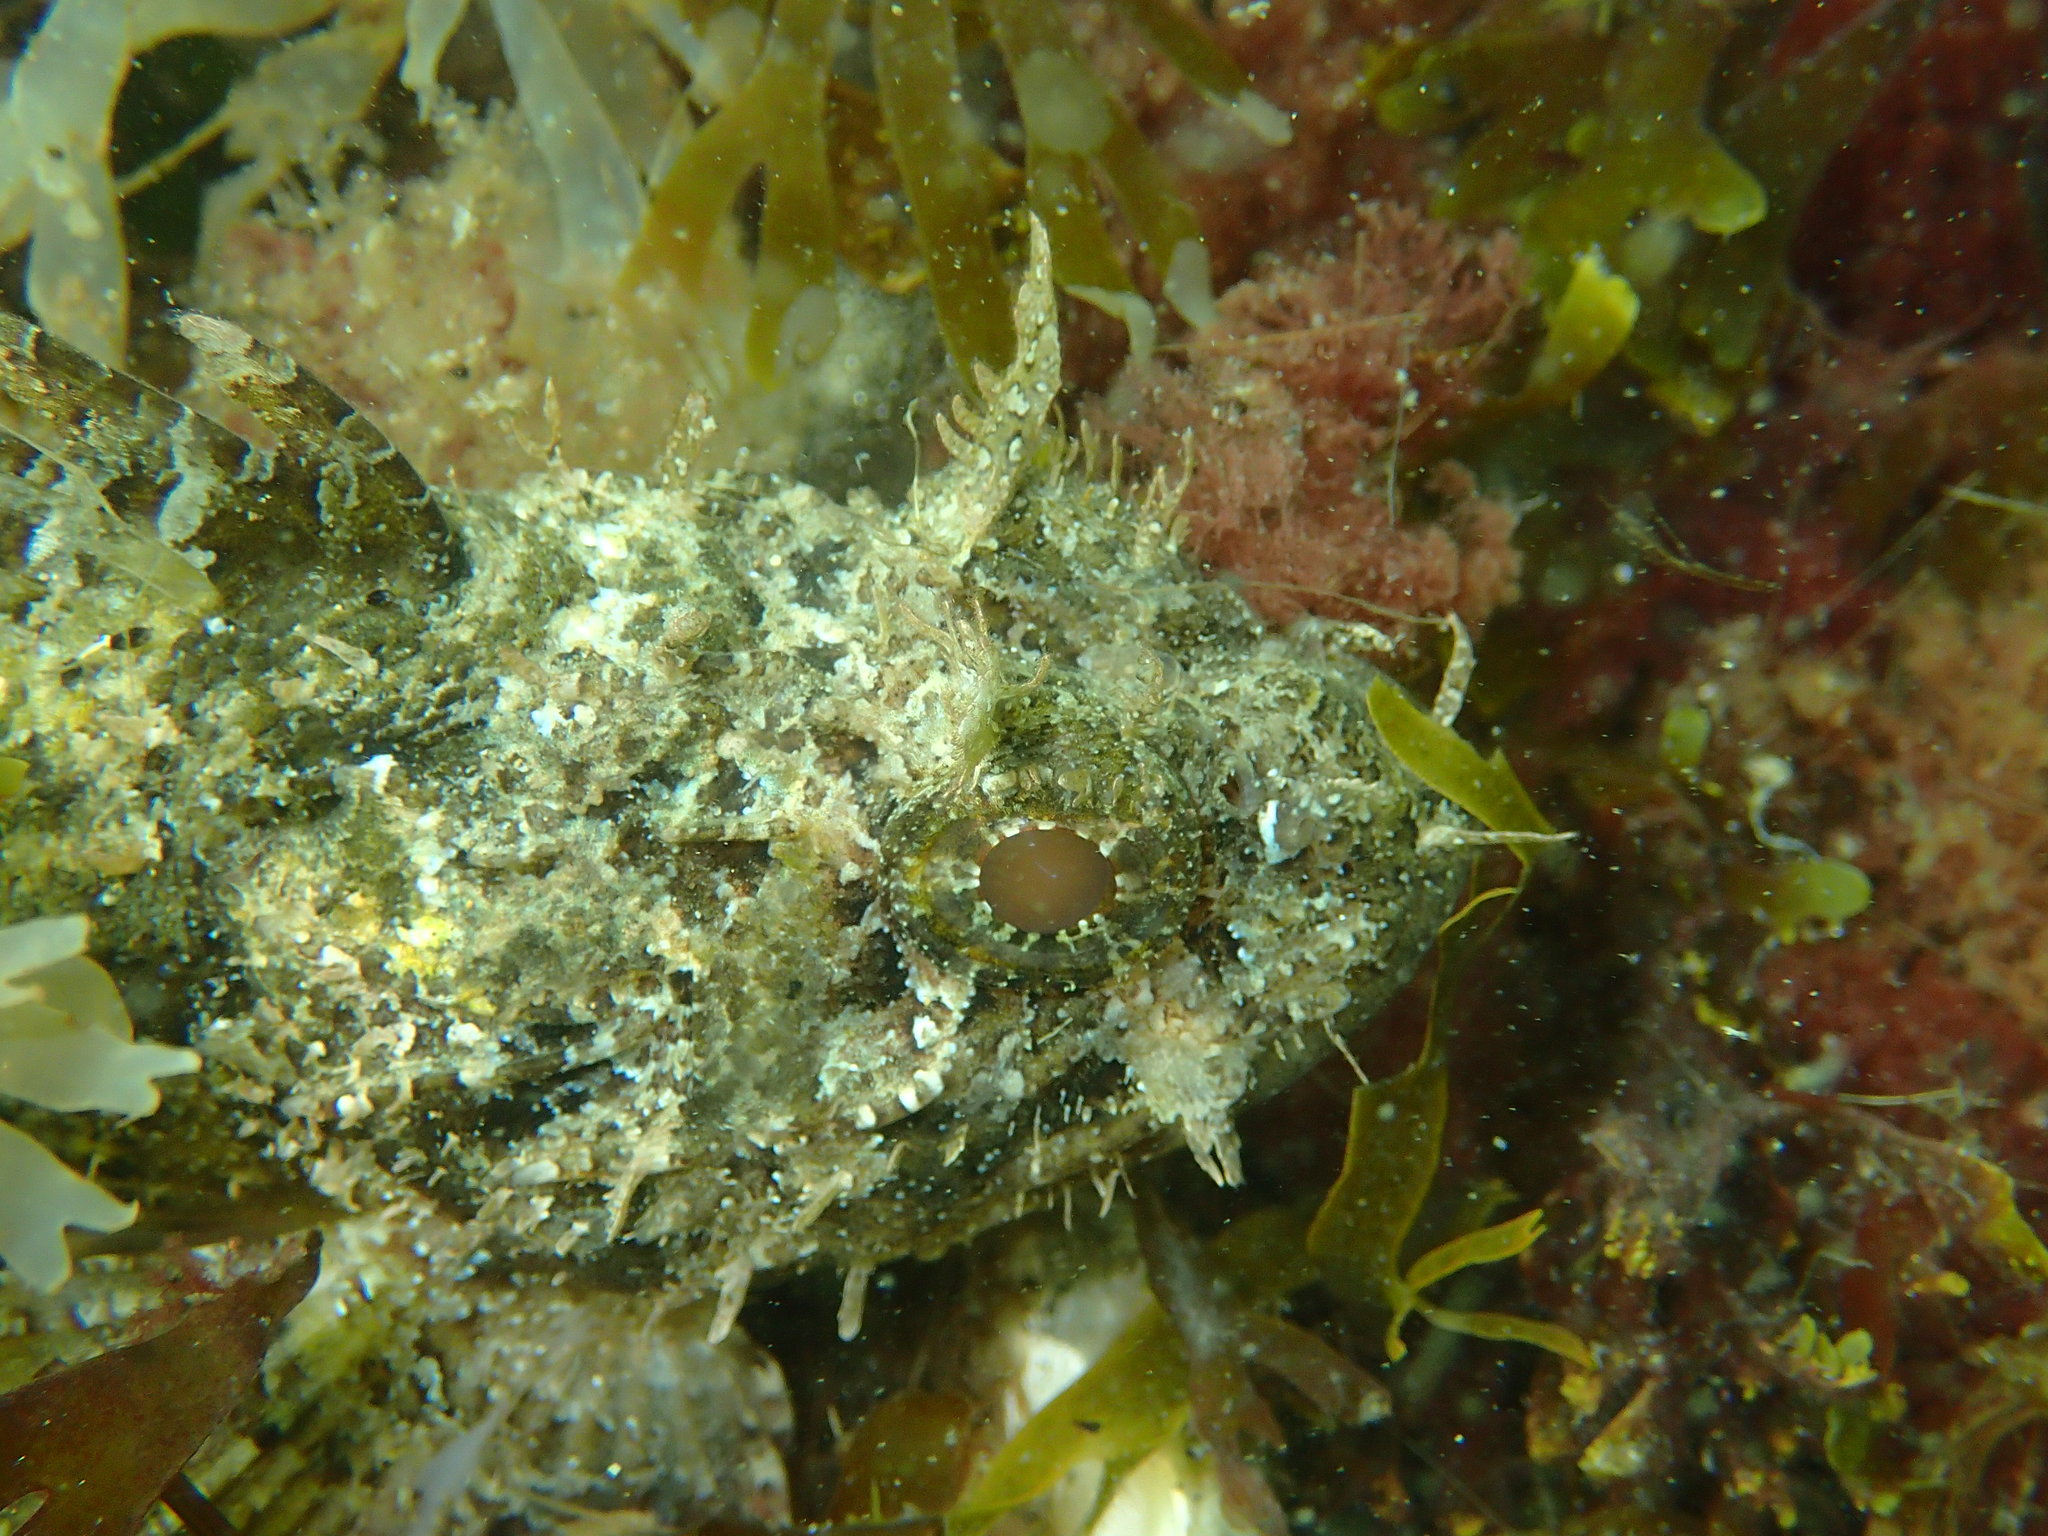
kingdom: Animalia
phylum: Chordata
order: Scorpaeniformes
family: Scorpaenidae
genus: Scorpaena
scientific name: Scorpaena porcus
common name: Black scorpionfish
